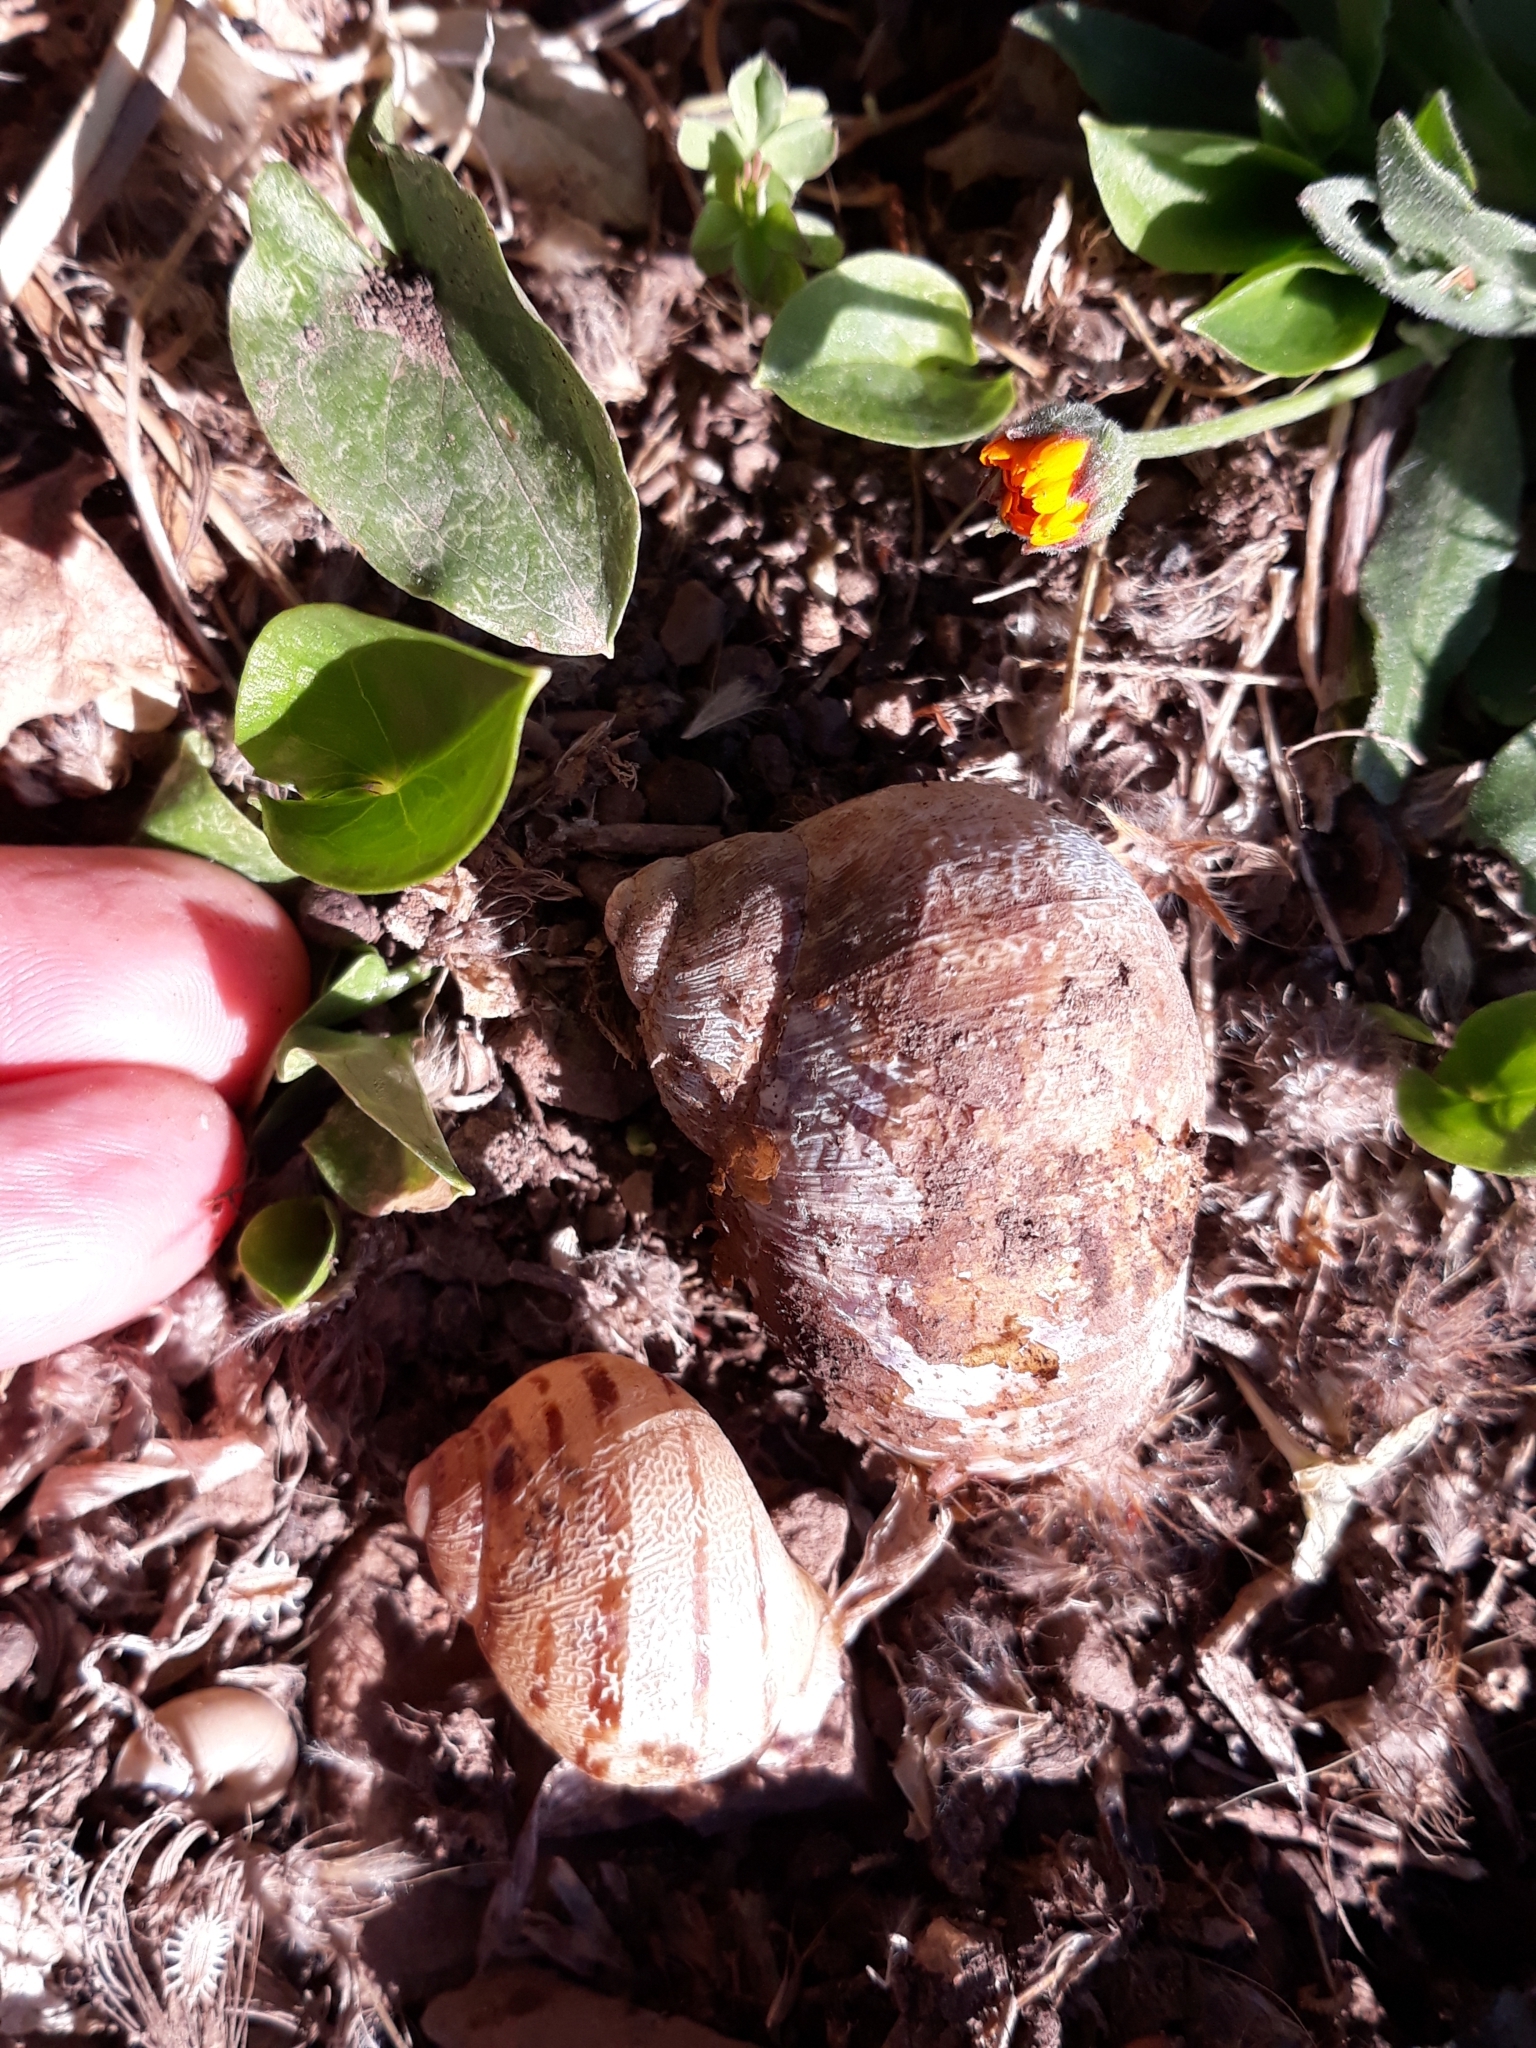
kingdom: Animalia
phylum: Mollusca
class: Gastropoda
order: Stylommatophora
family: Helicidae
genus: Cornu
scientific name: Cornu aspersum
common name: Brown garden snail
